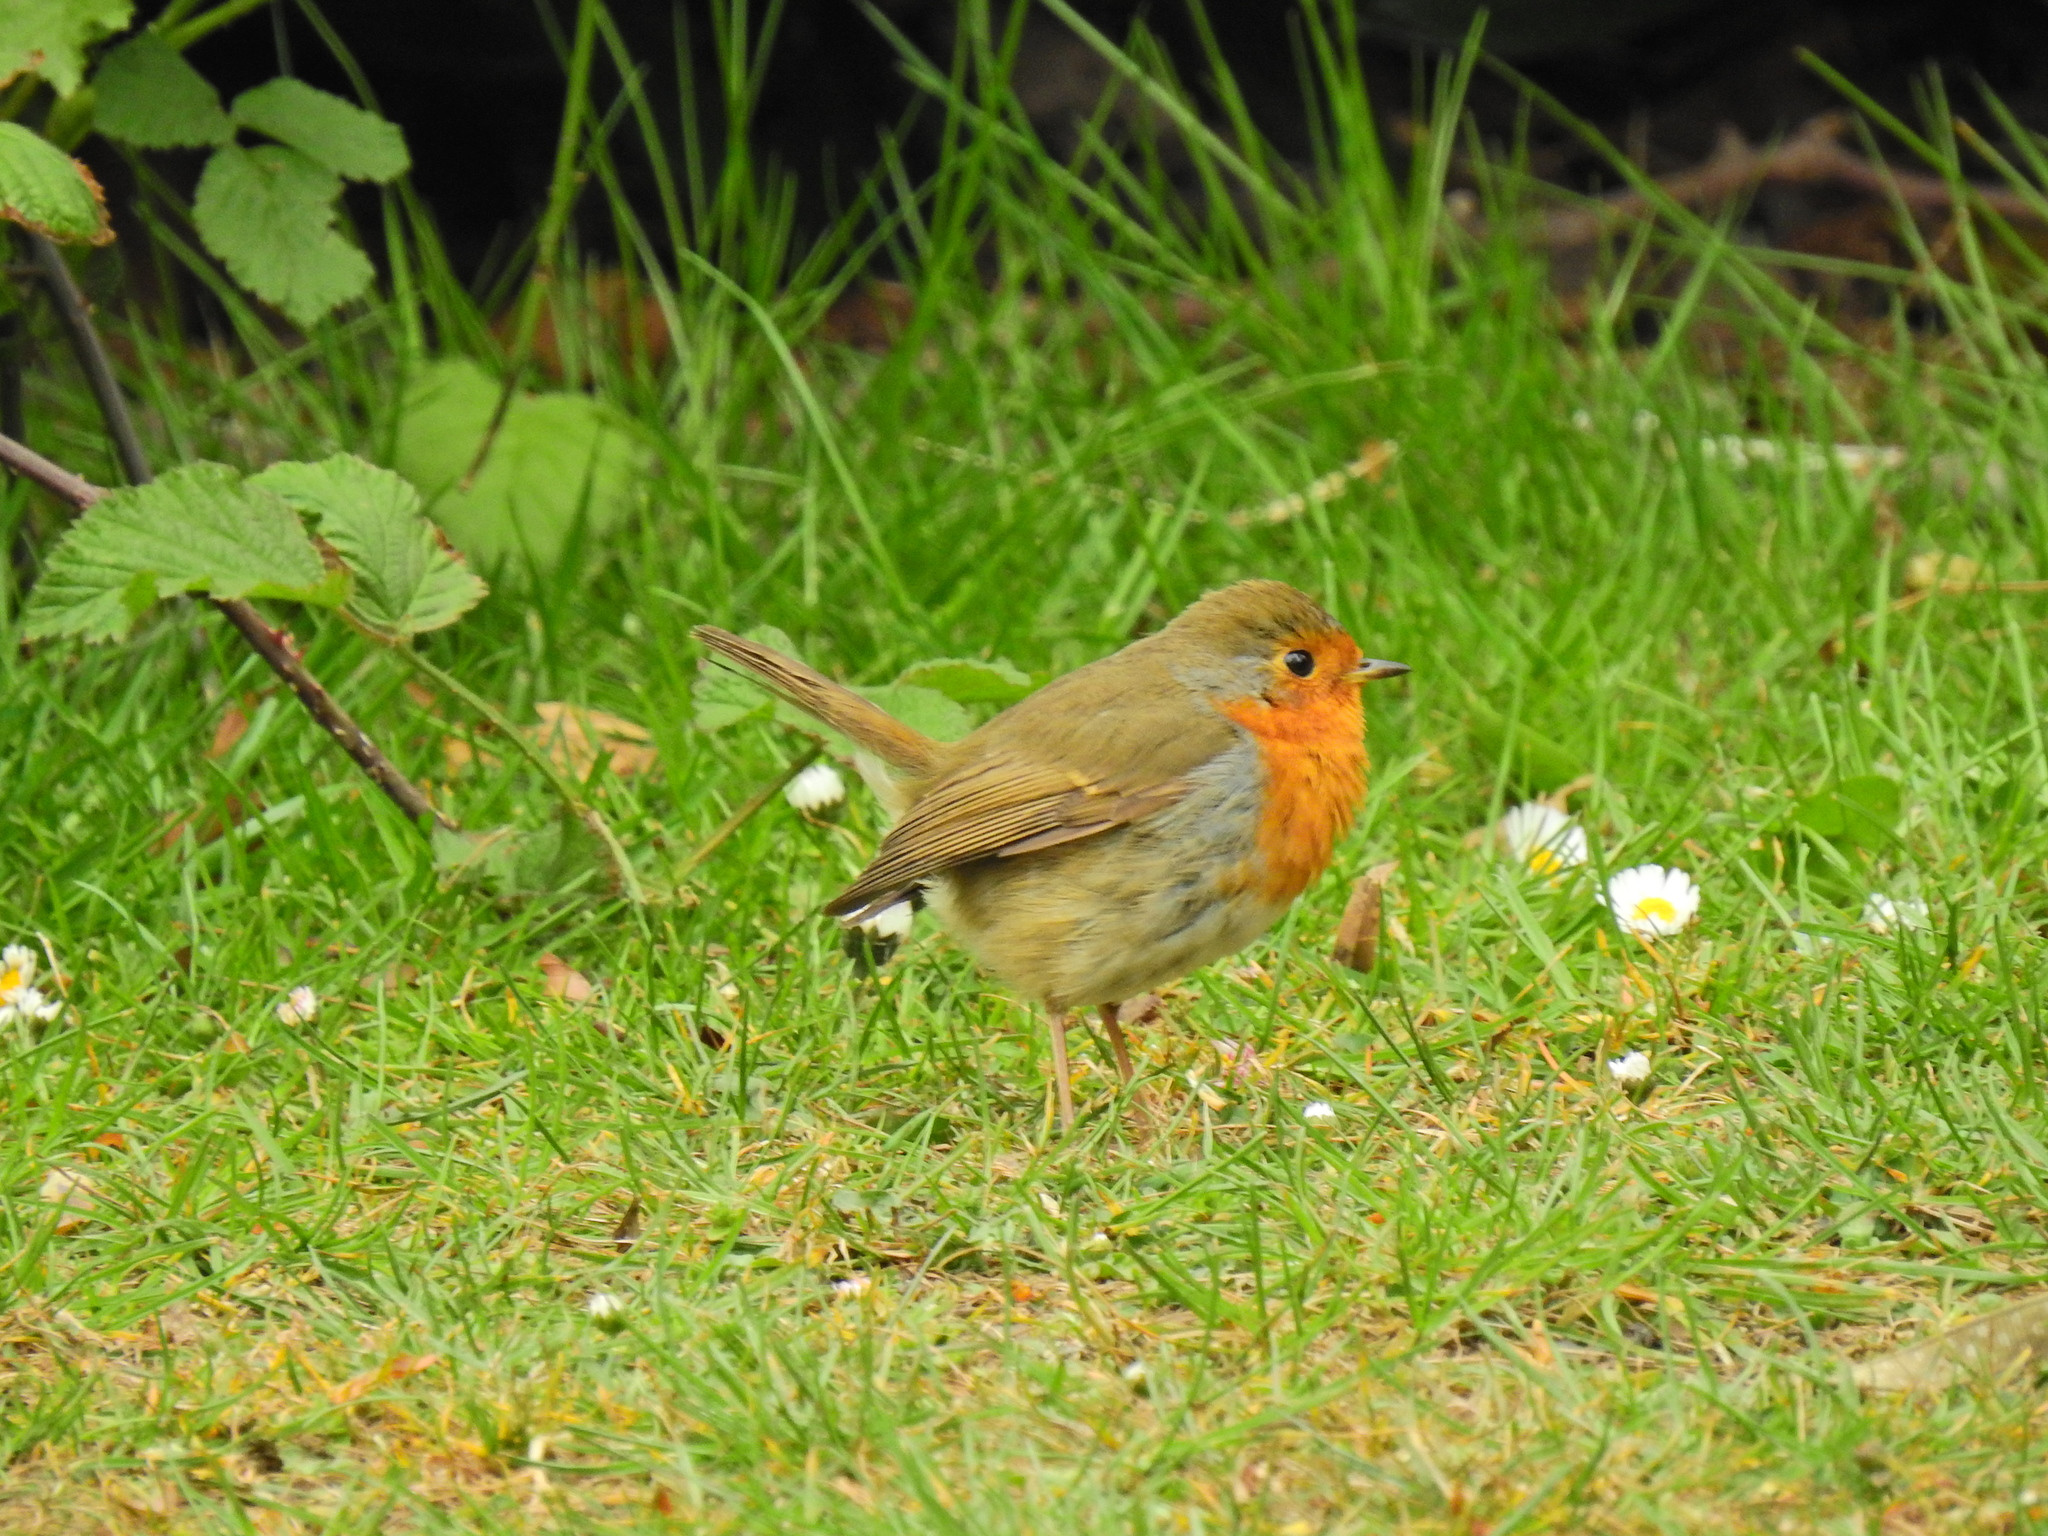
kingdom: Animalia
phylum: Chordata
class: Aves
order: Passeriformes
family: Muscicapidae
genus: Erithacus
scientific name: Erithacus rubecula
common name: European robin
